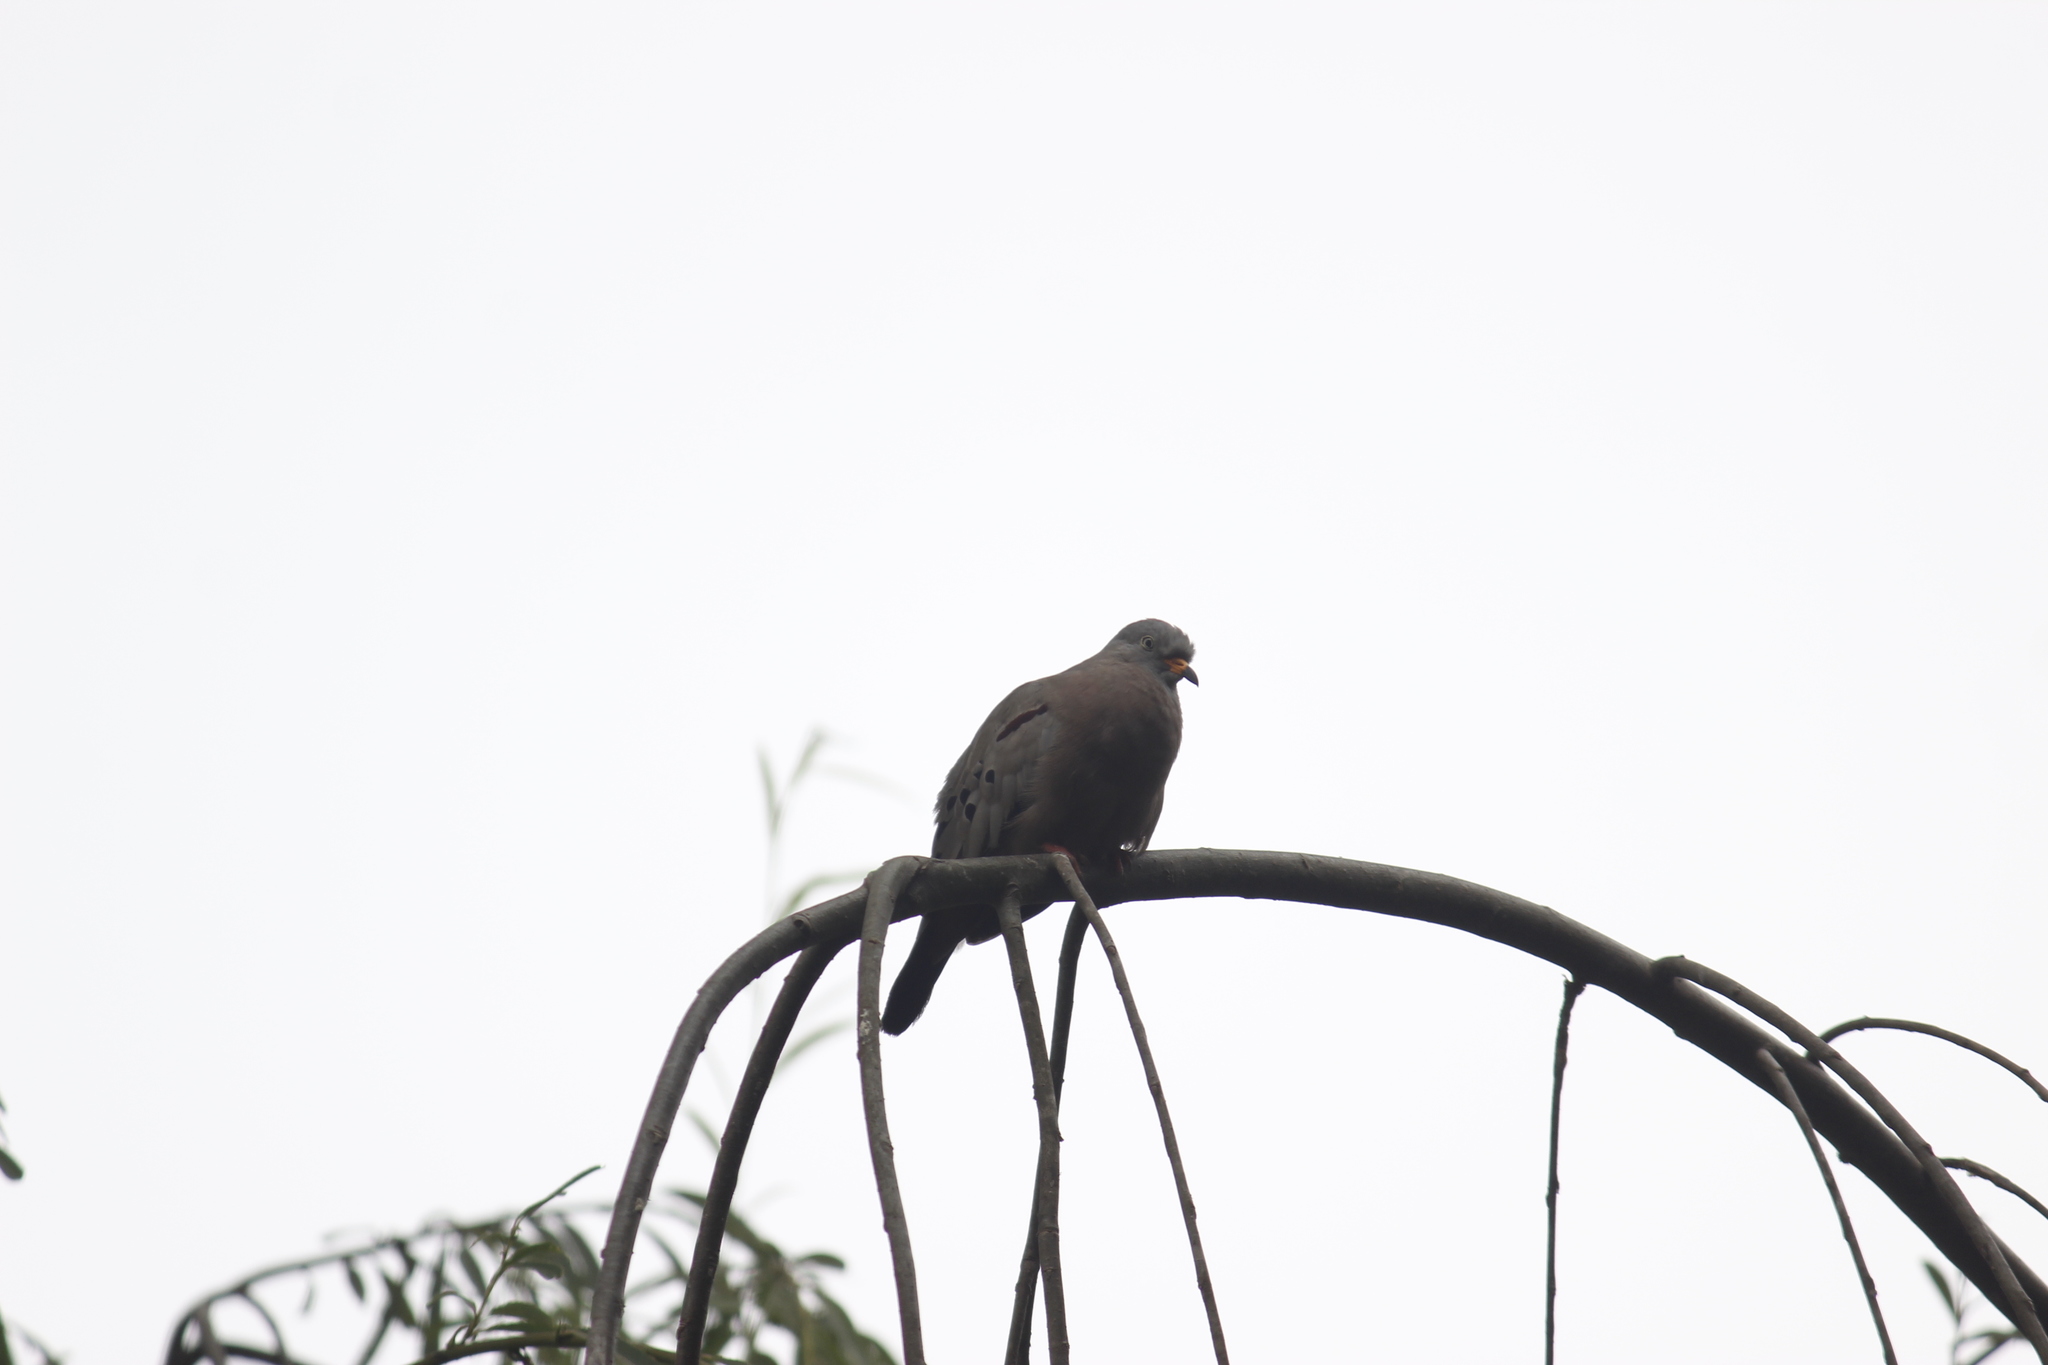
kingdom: Animalia
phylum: Chordata
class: Aves
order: Columbiformes
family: Columbidae
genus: Columbina
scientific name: Columbina cruziana
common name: Croaking ground dove
